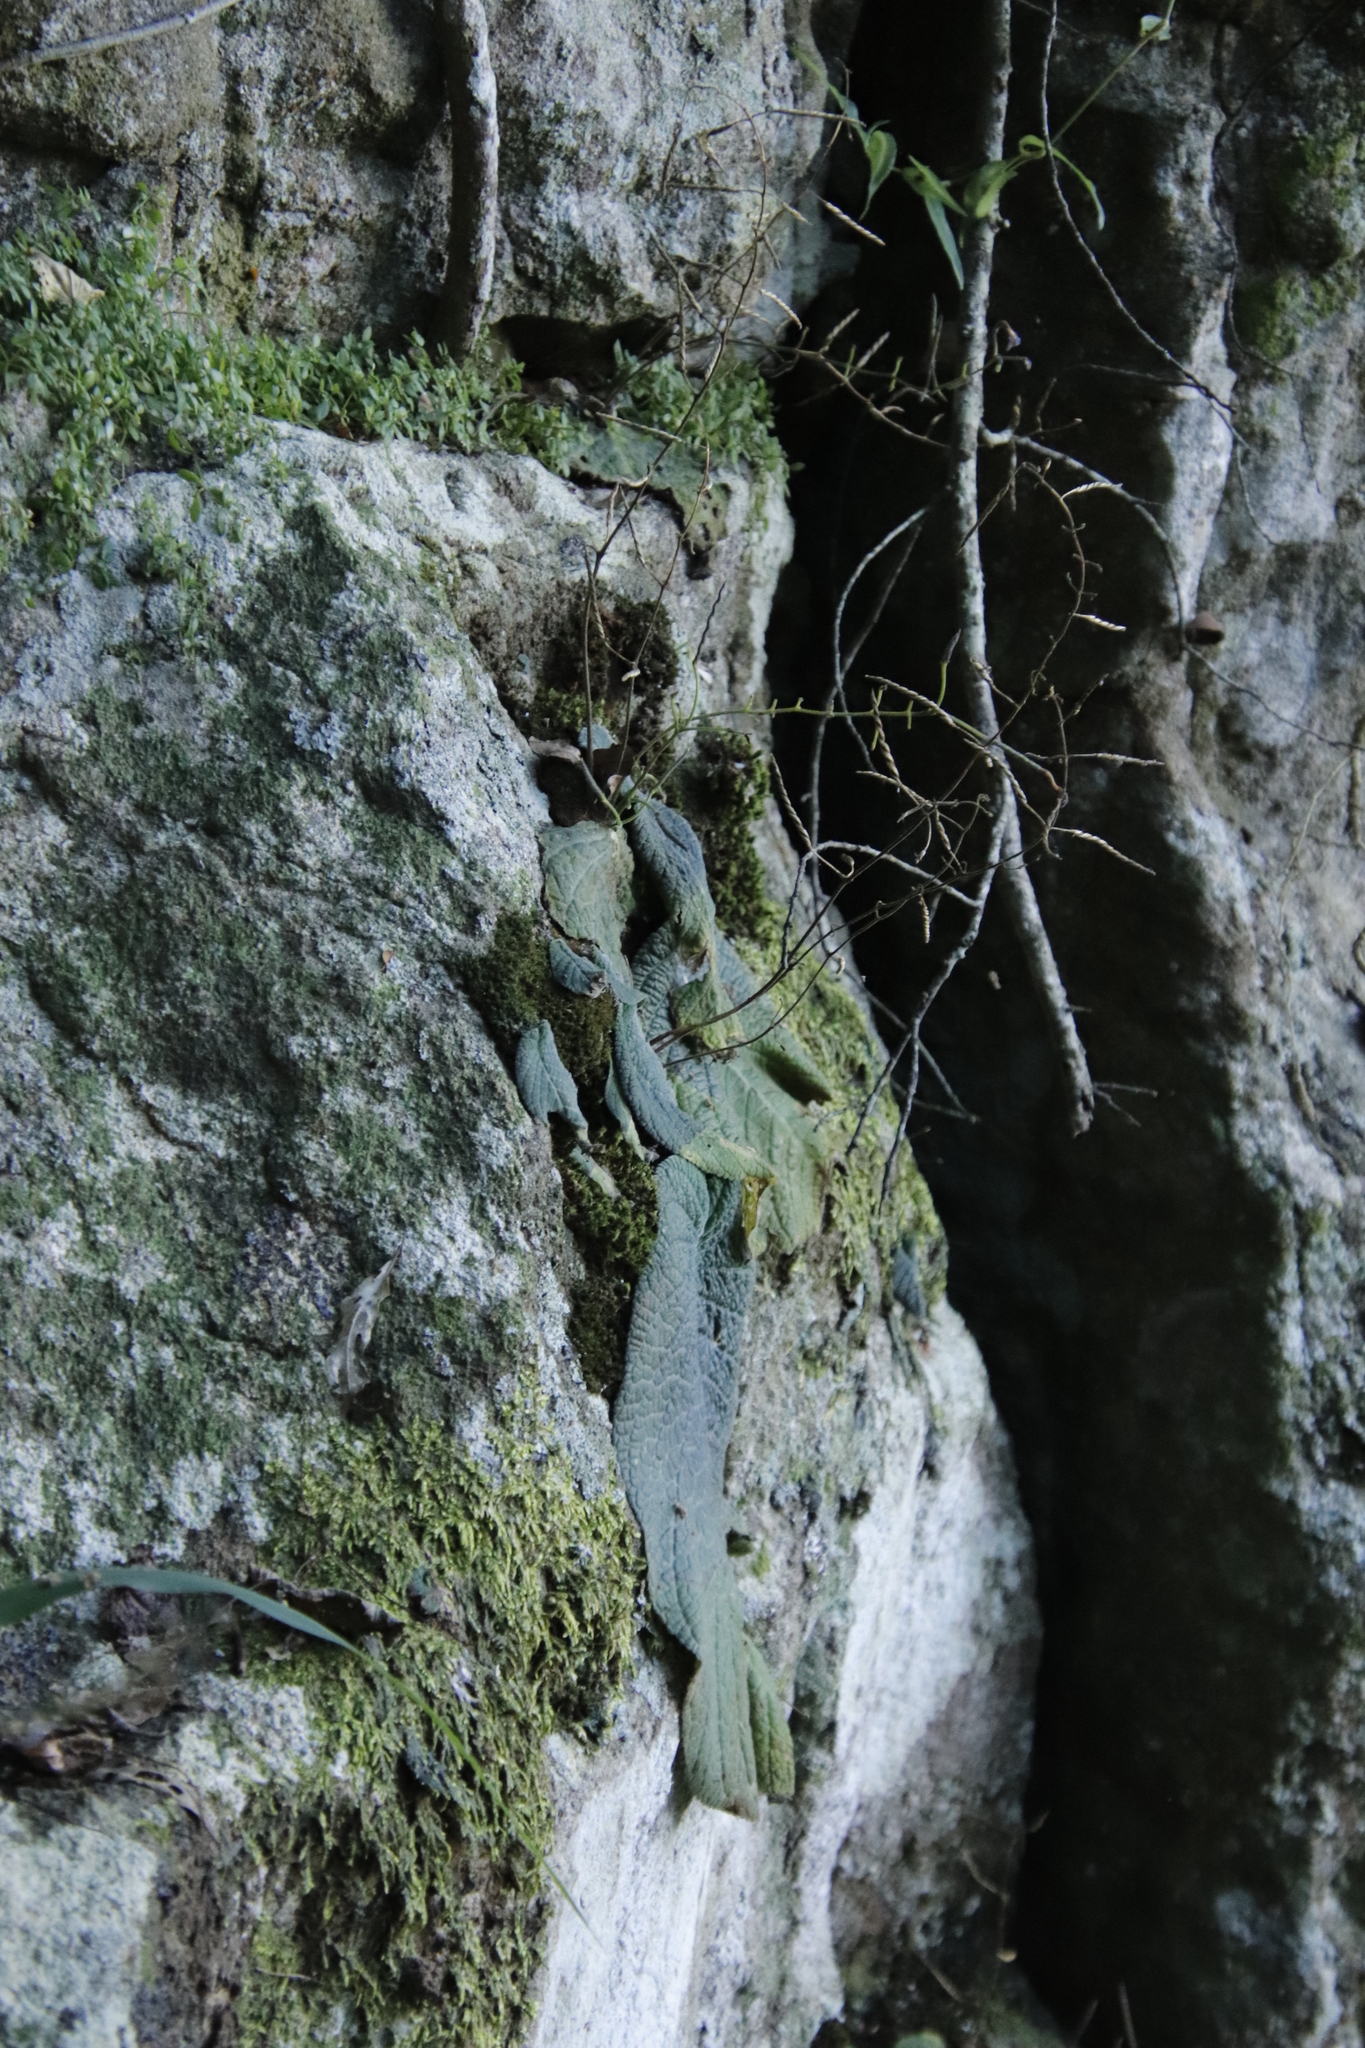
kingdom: Plantae
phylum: Tracheophyta
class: Magnoliopsida
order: Lamiales
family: Gesneriaceae
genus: Streptocarpus
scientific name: Streptocarpus polyanthus
